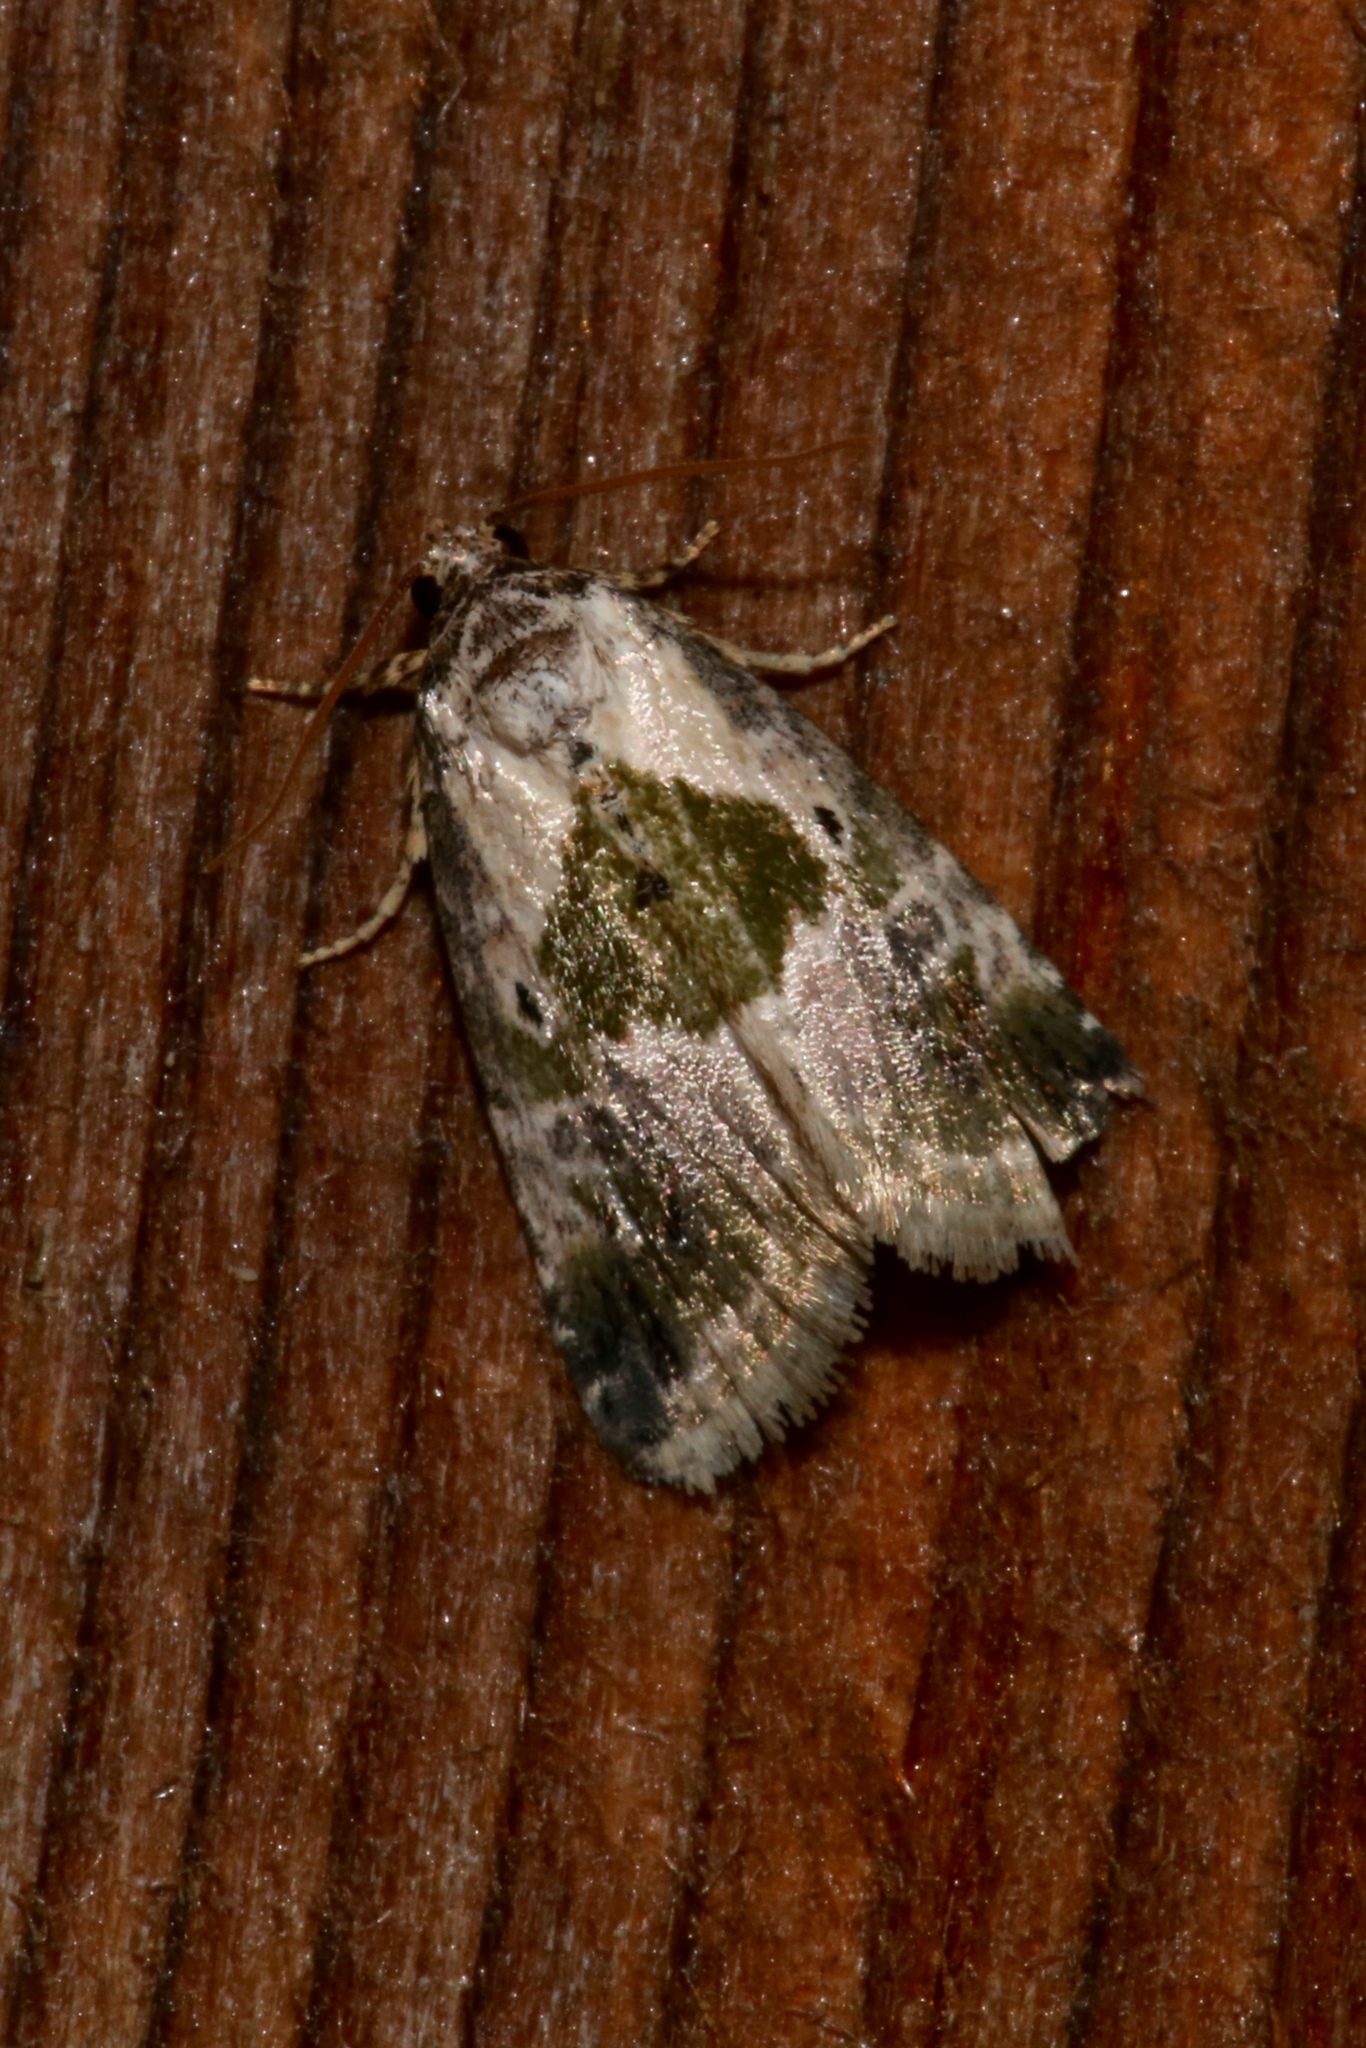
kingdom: Animalia
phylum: Arthropoda
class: Insecta
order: Lepidoptera
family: Noctuidae
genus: Maliattha
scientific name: Maliattha synochitis
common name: Black-dotted glyph
